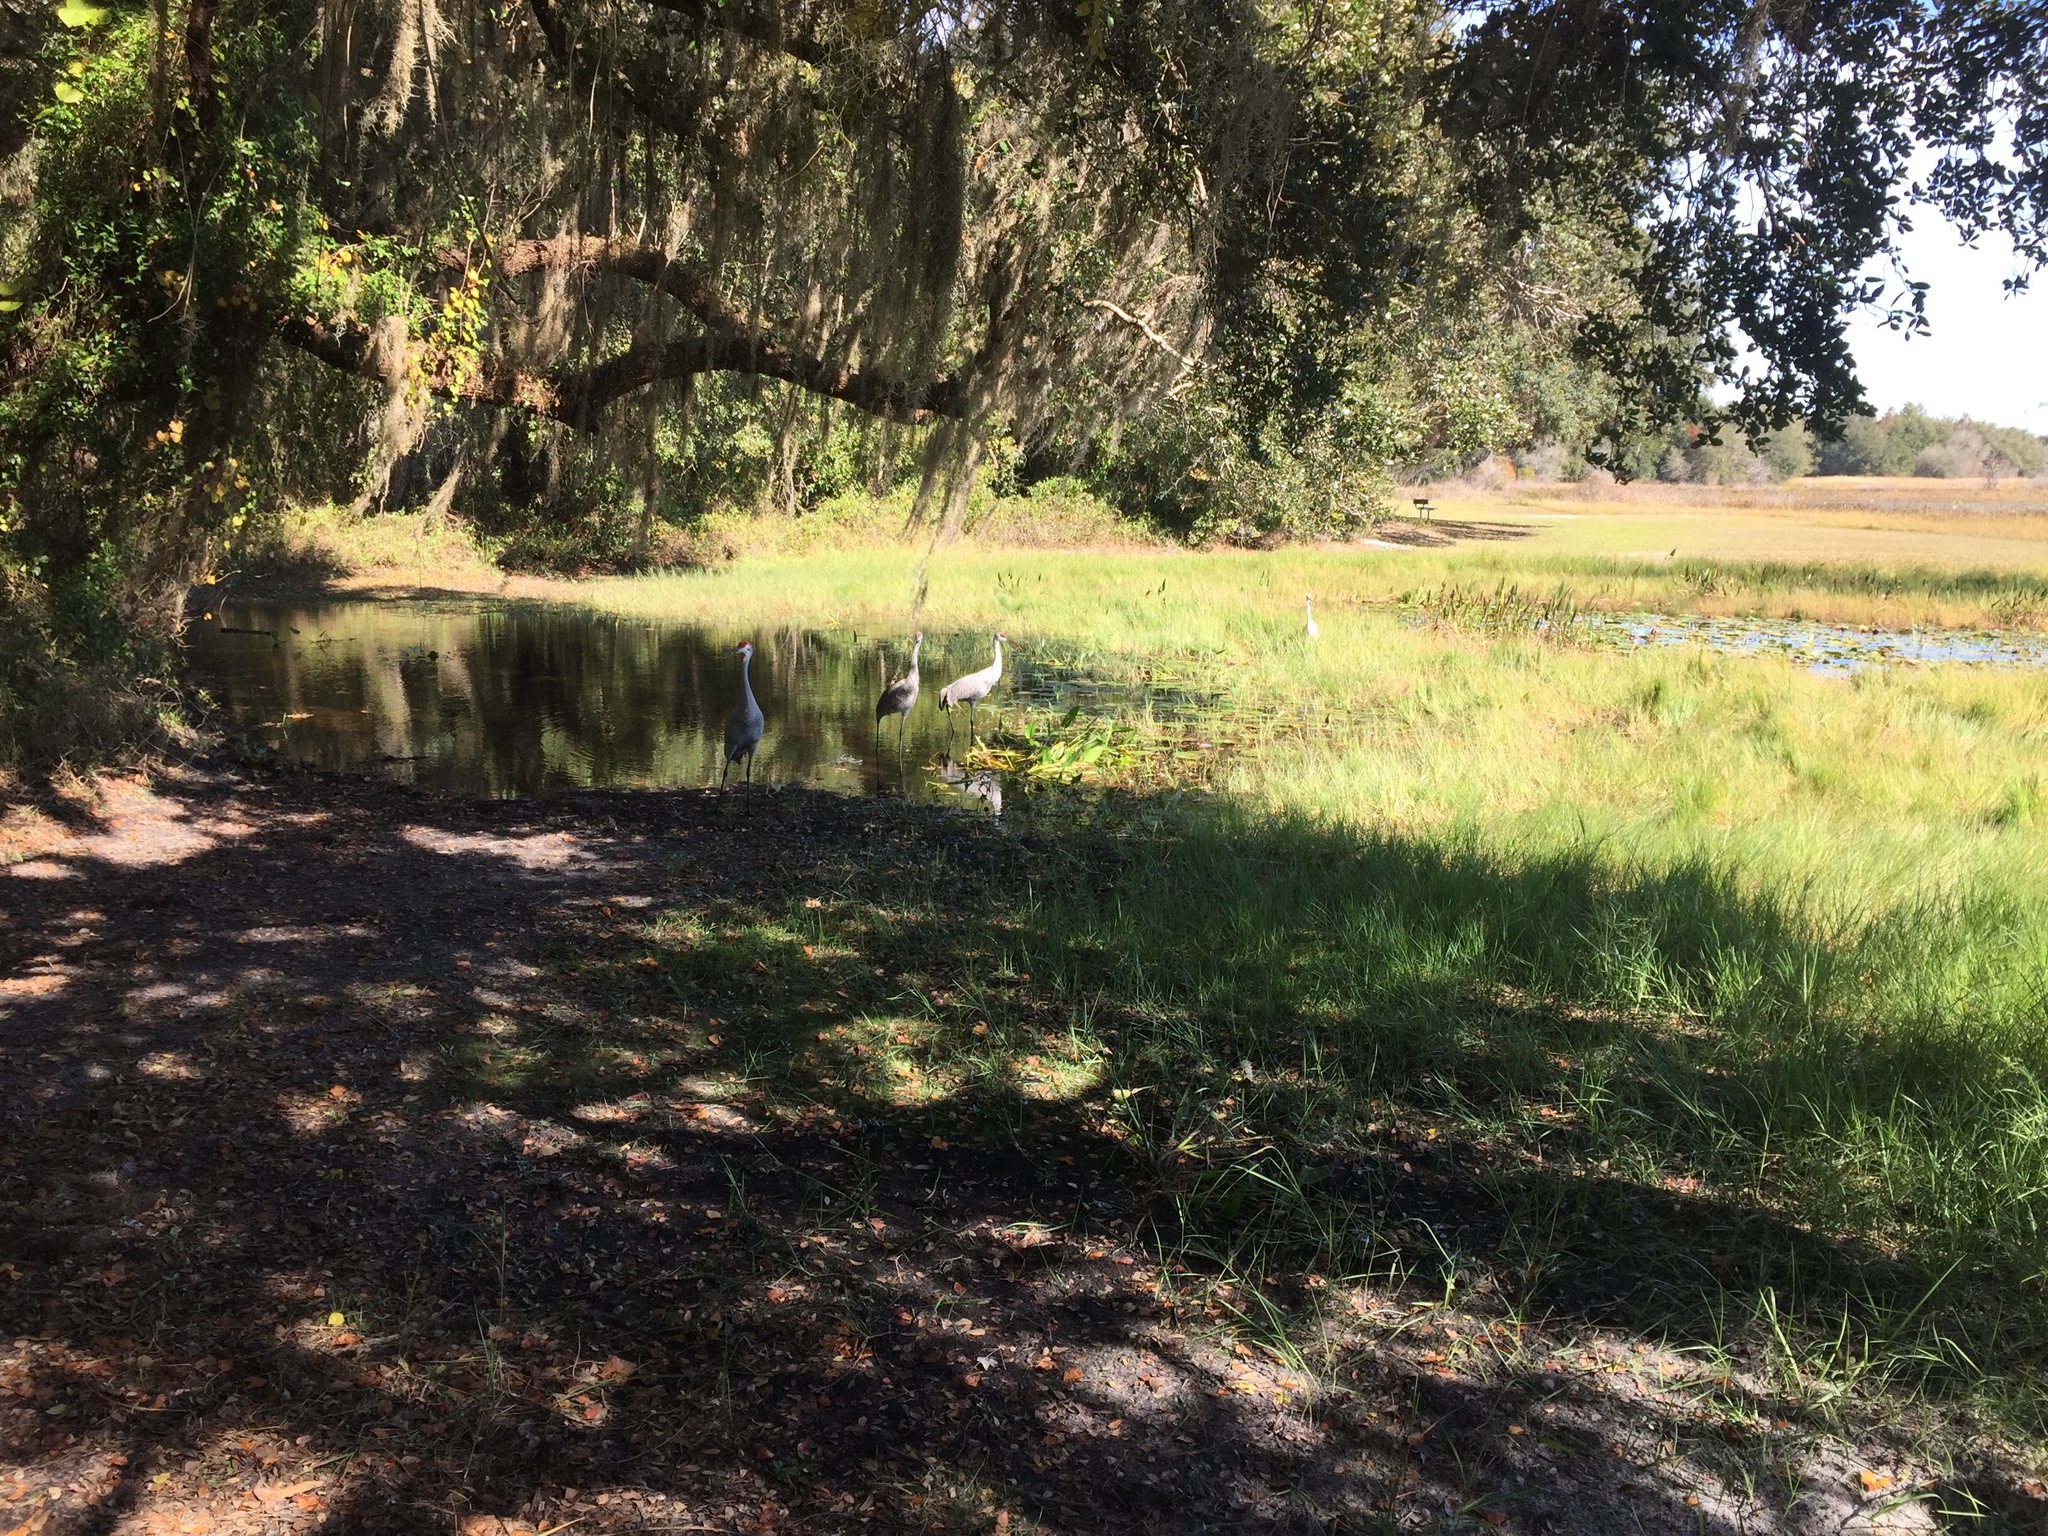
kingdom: Animalia
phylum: Chordata
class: Aves
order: Gruiformes
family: Gruidae
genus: Grus
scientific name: Grus canadensis
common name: Sandhill crane
